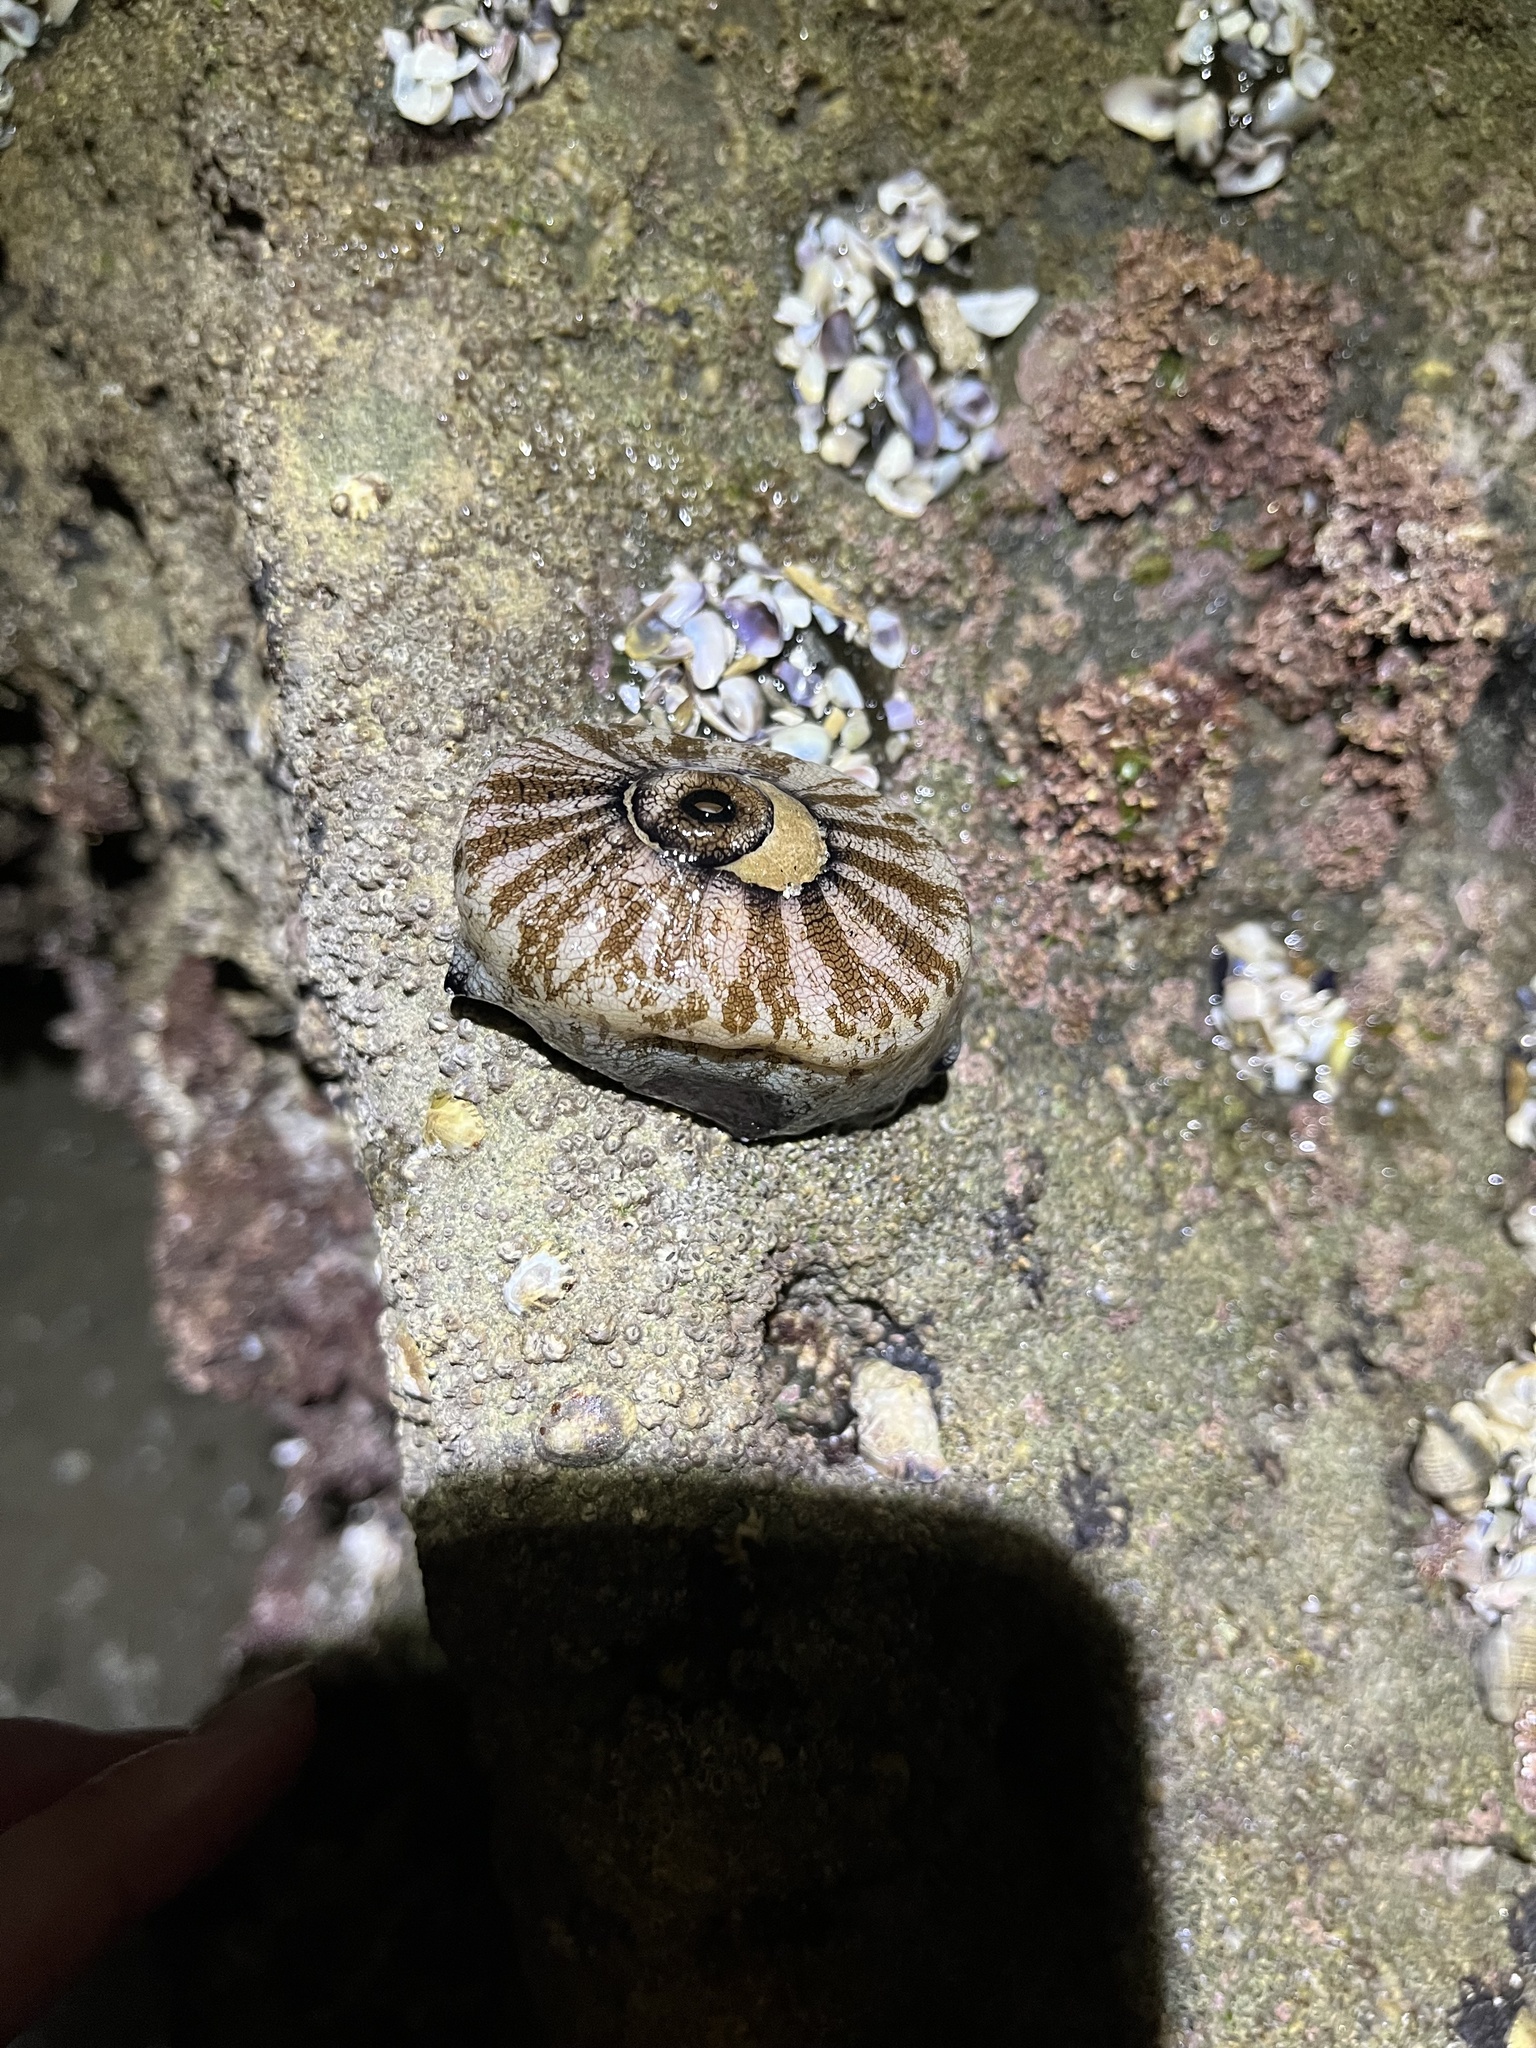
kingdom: Animalia
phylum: Mollusca
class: Gastropoda
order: Lepetellida
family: Fissurellidae
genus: Megathura
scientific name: Megathura crenulata
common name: Giant keyhole limpet
